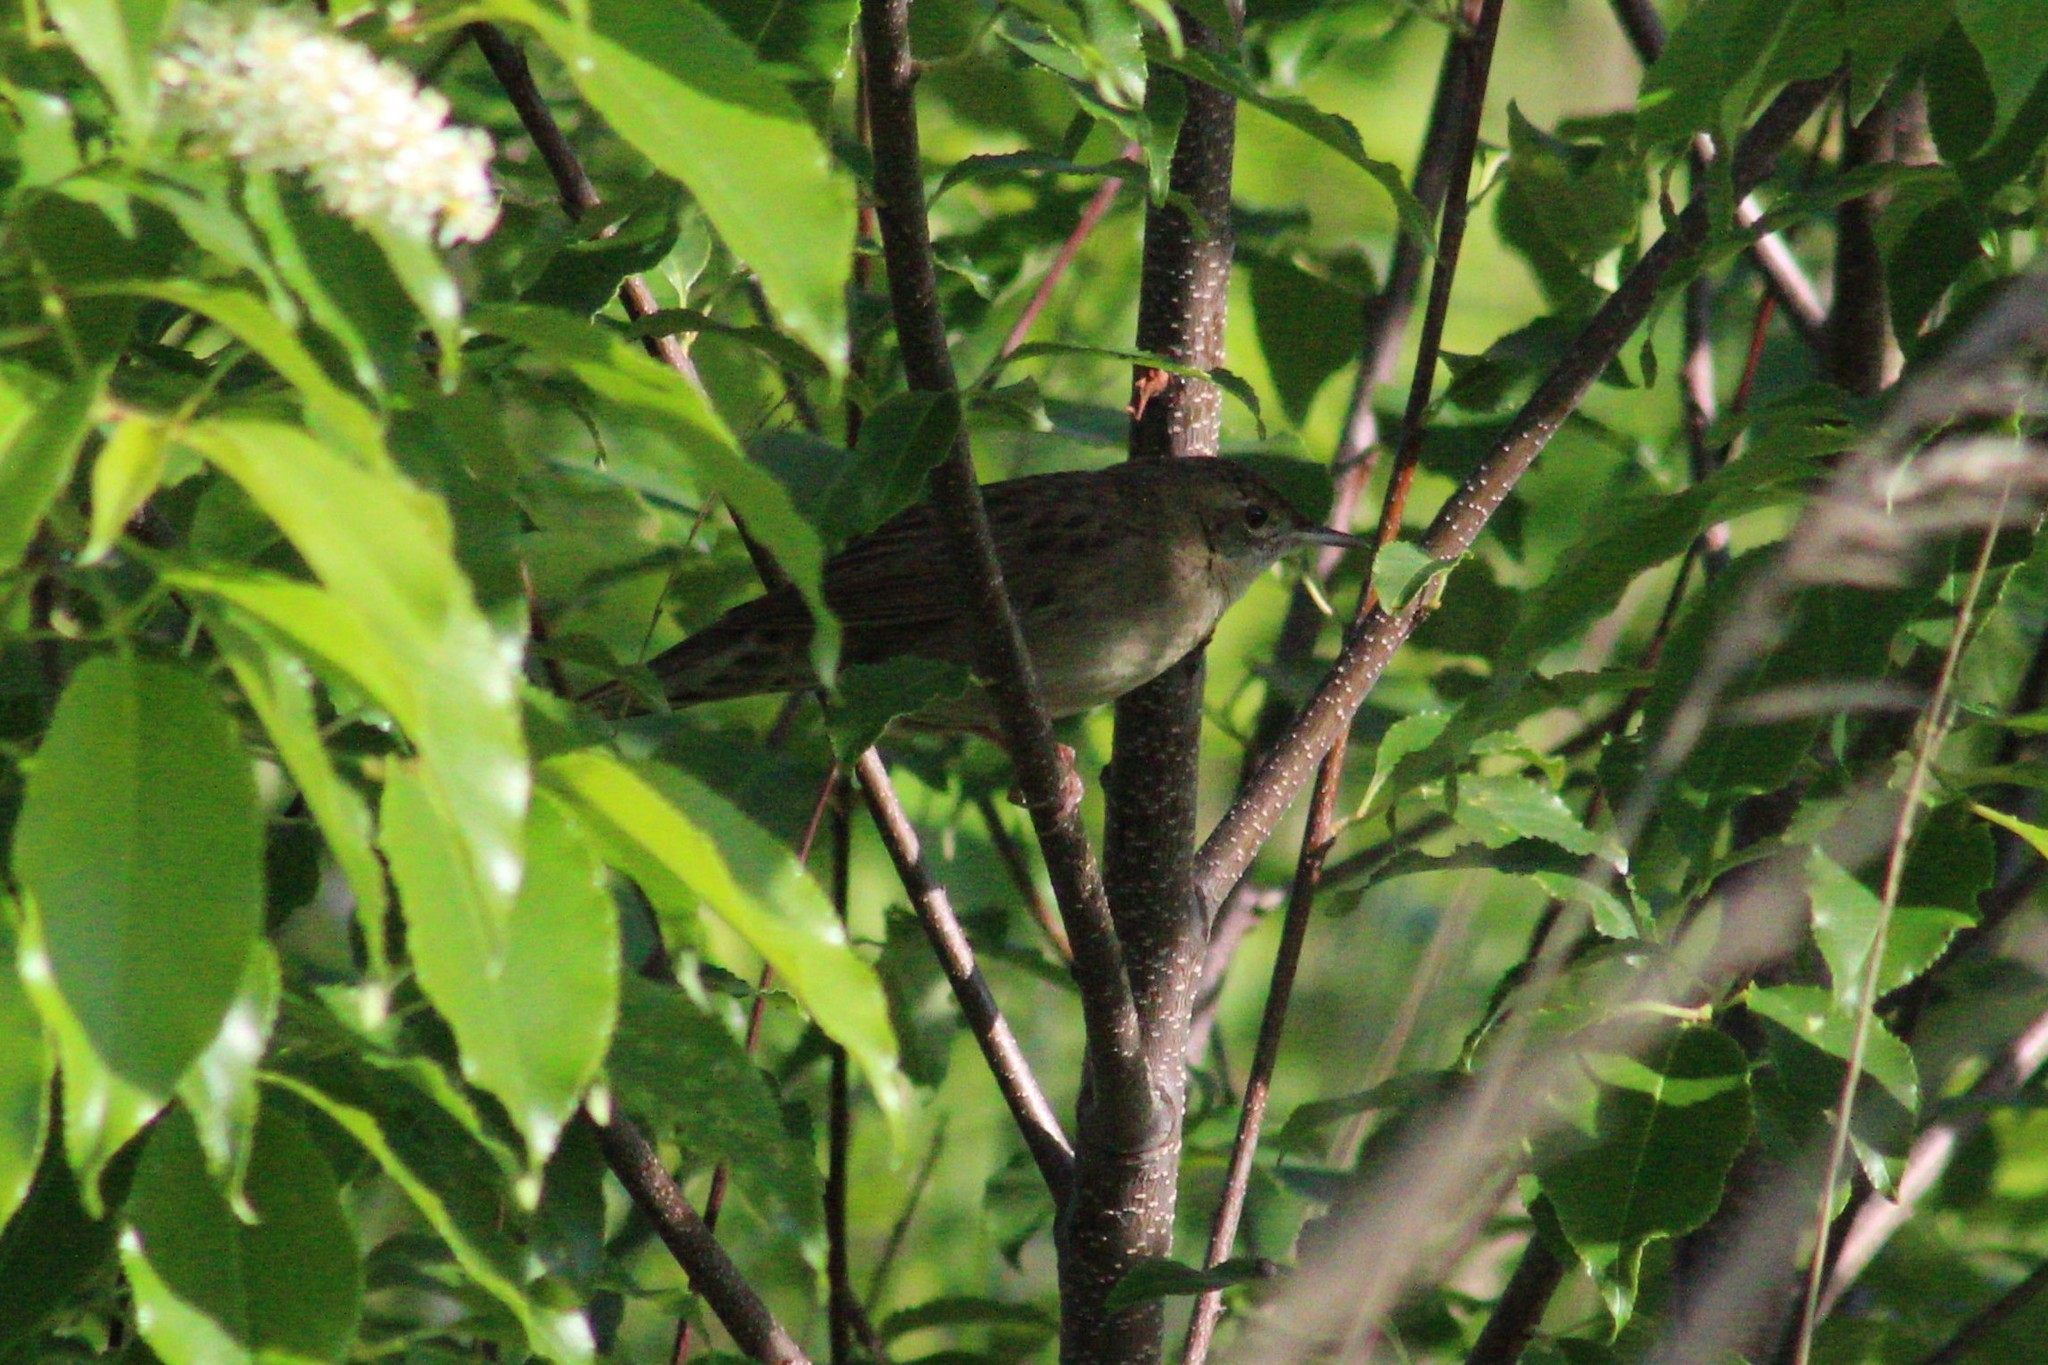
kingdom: Animalia
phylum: Chordata
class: Aves
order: Passeriformes
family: Locustellidae
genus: Locustella
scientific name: Locustella naevia
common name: Common grasshopper warbler
